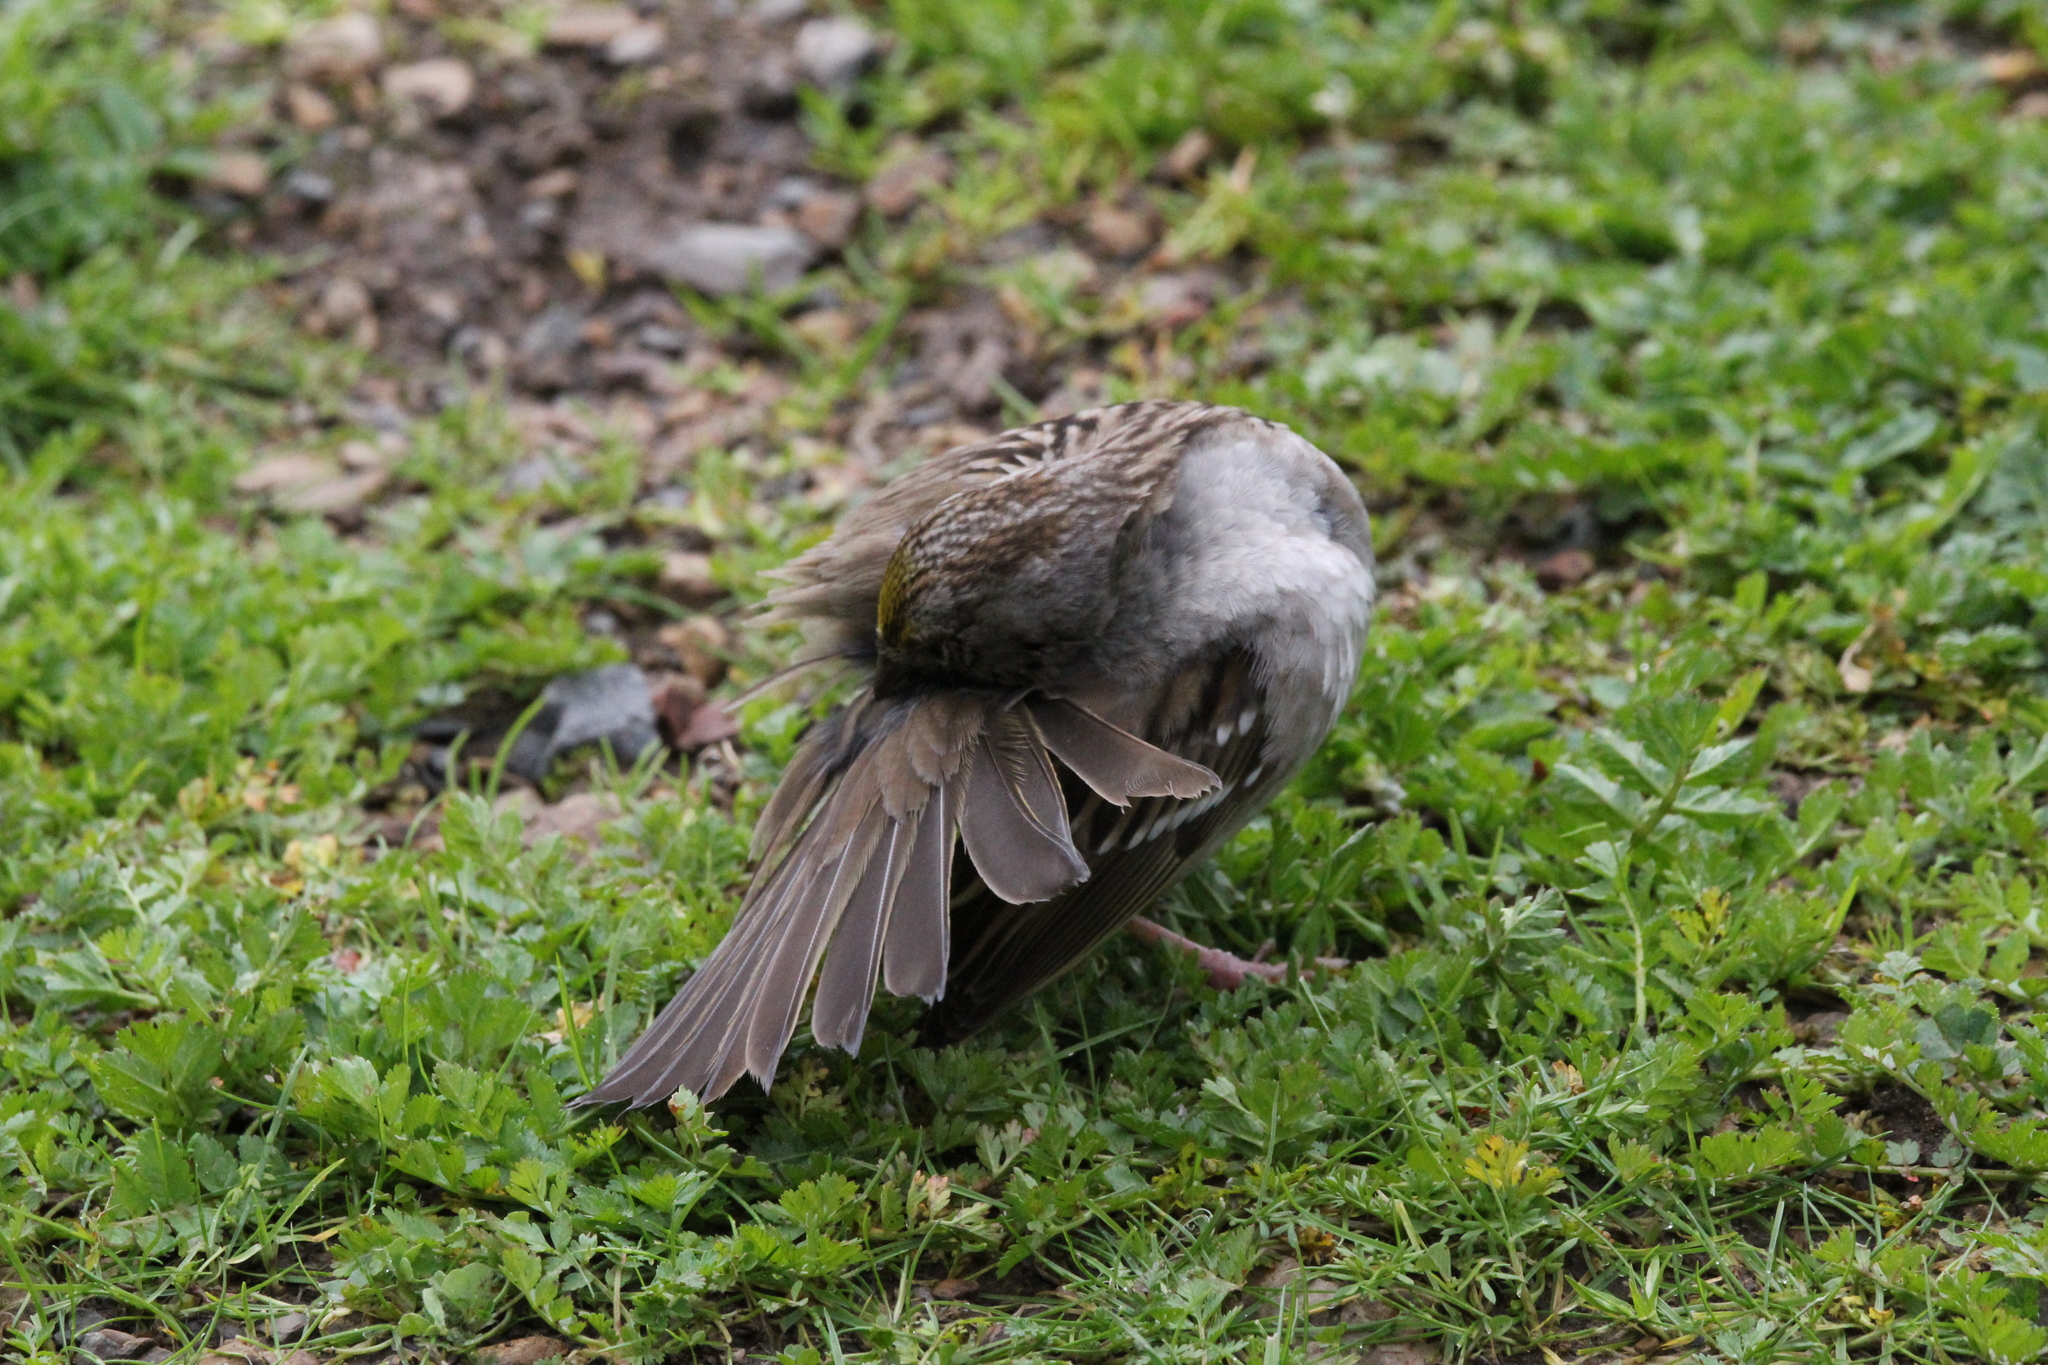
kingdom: Animalia
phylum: Chordata
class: Aves
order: Passeriformes
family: Passerellidae
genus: Zonotrichia
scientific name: Zonotrichia atricapilla
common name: Golden-crowned sparrow
